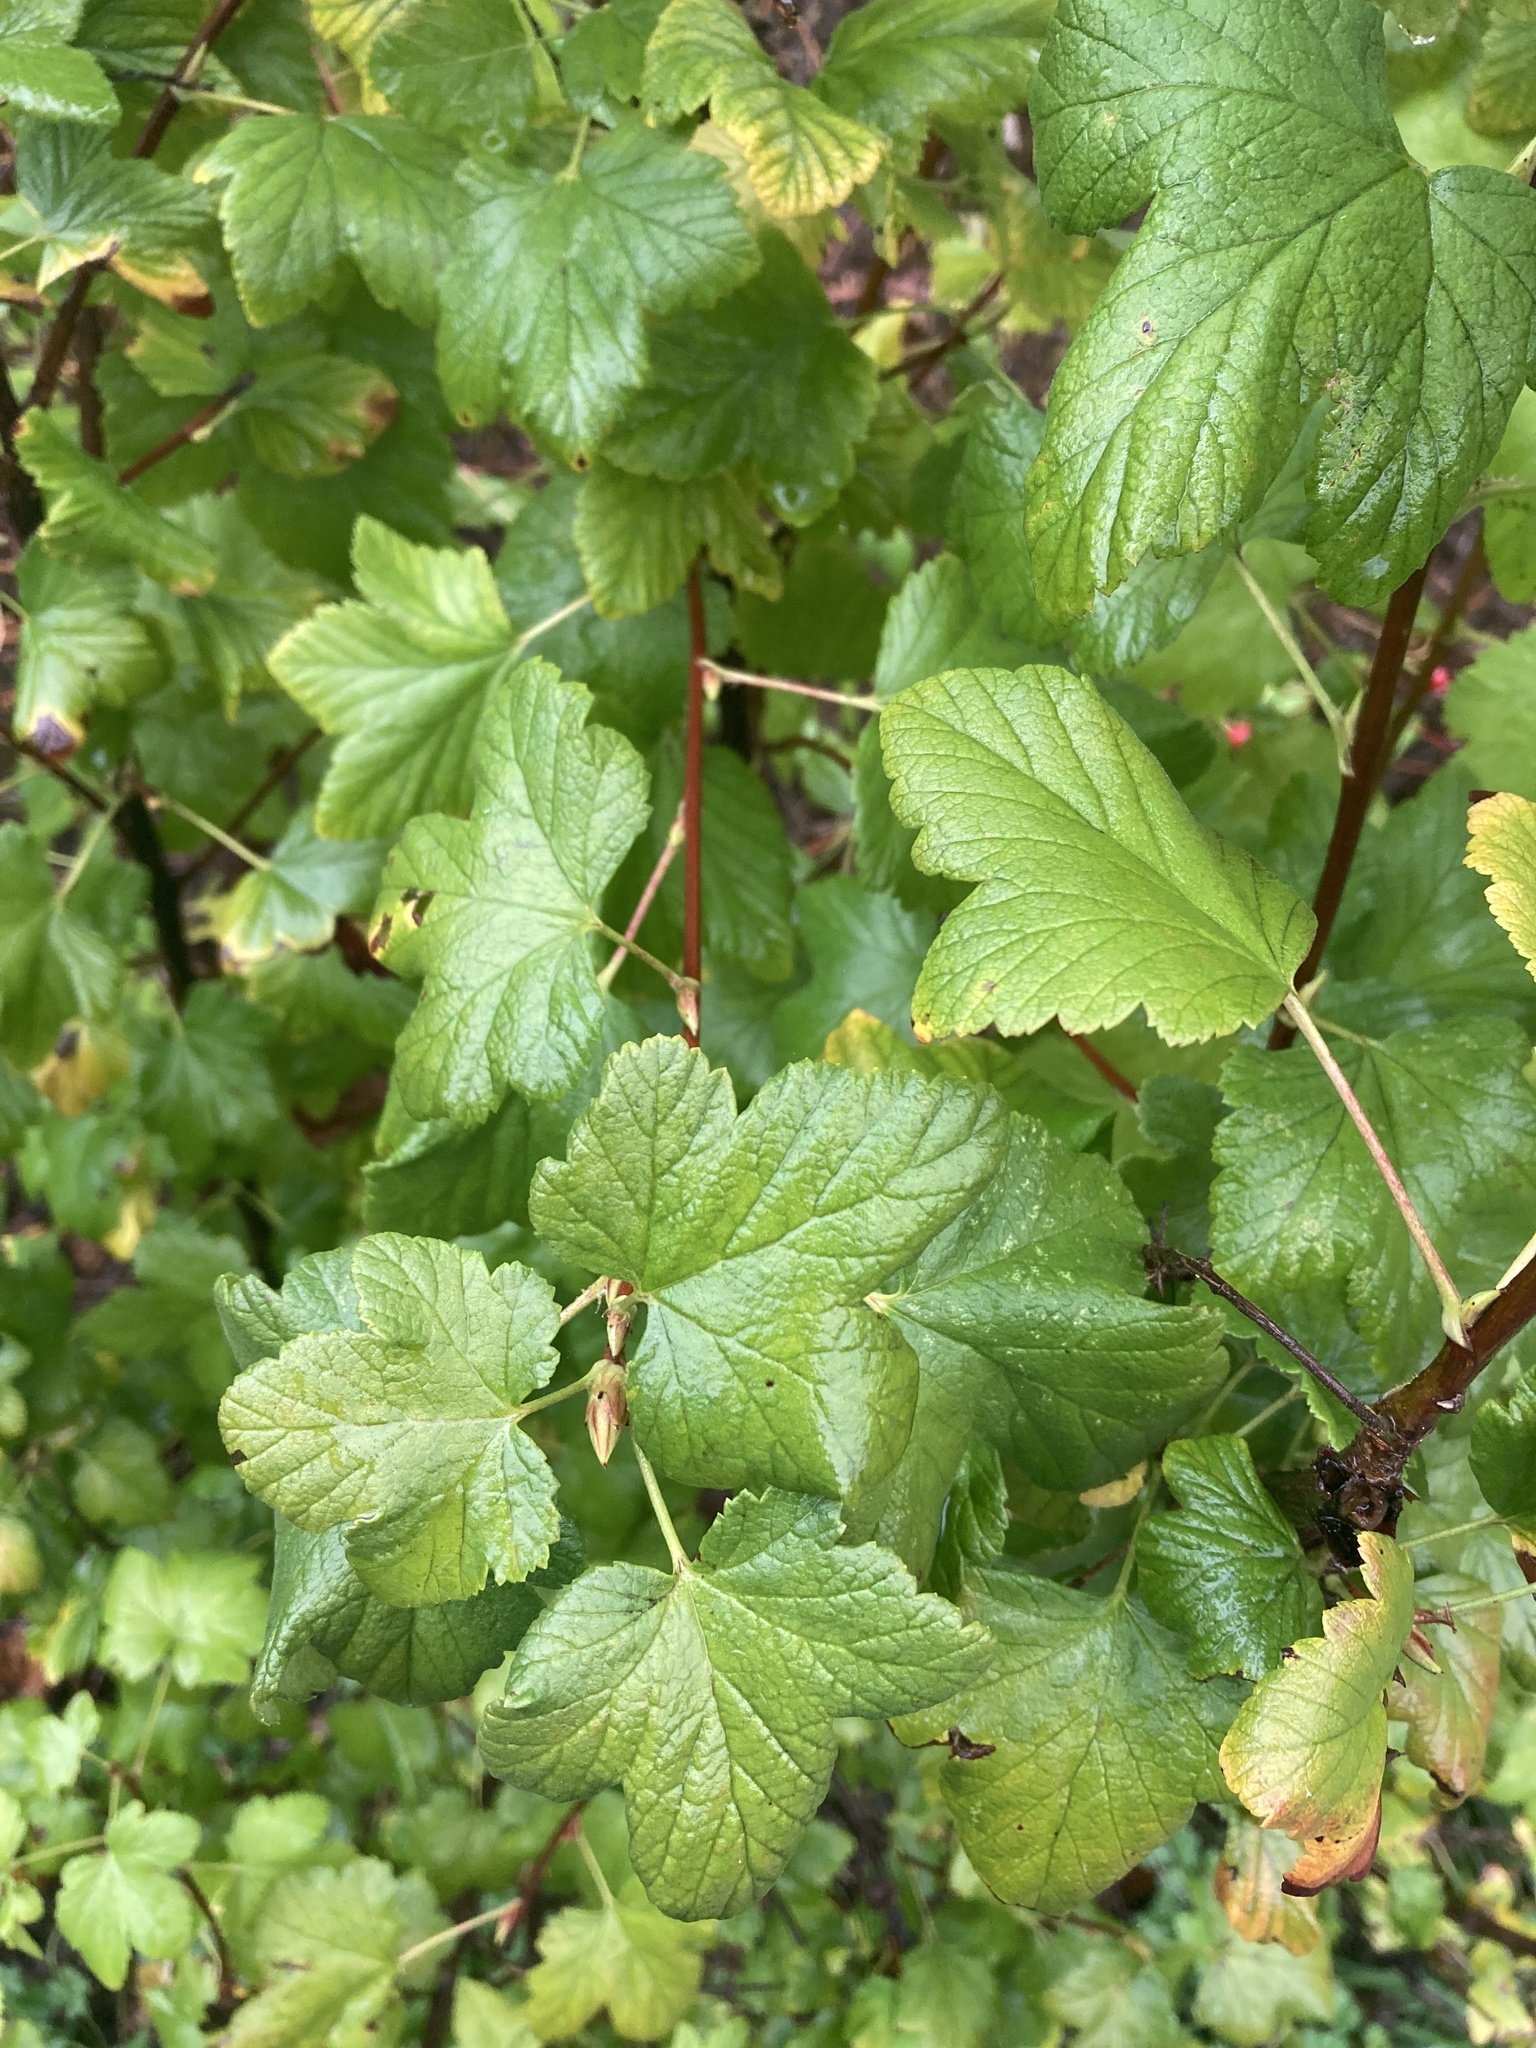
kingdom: Plantae
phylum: Tracheophyta
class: Magnoliopsida
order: Saxifragales
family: Grossulariaceae
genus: Ribes
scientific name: Ribes sanguineum
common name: Flowering currant
